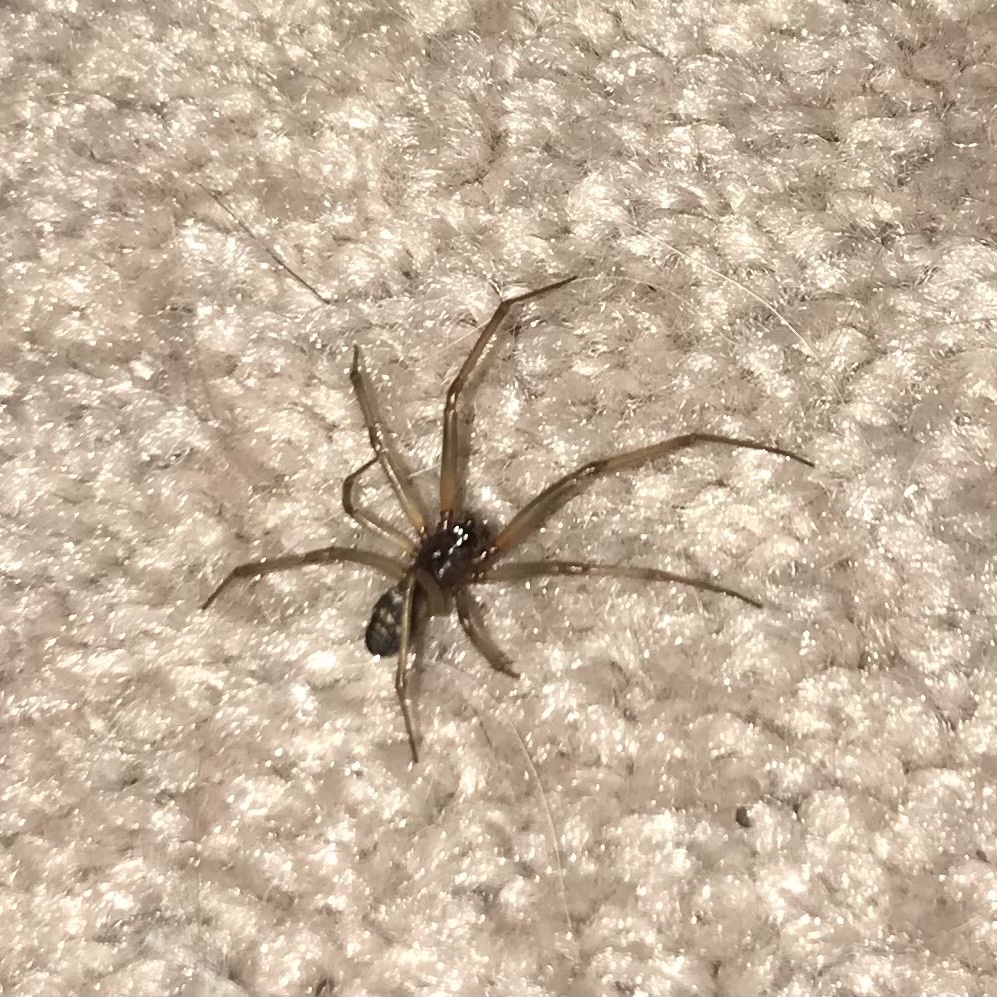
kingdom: Animalia
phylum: Arthropoda
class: Arachnida
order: Araneae
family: Theridiidae
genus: Steatoda
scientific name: Steatoda grossa
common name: False black widow
